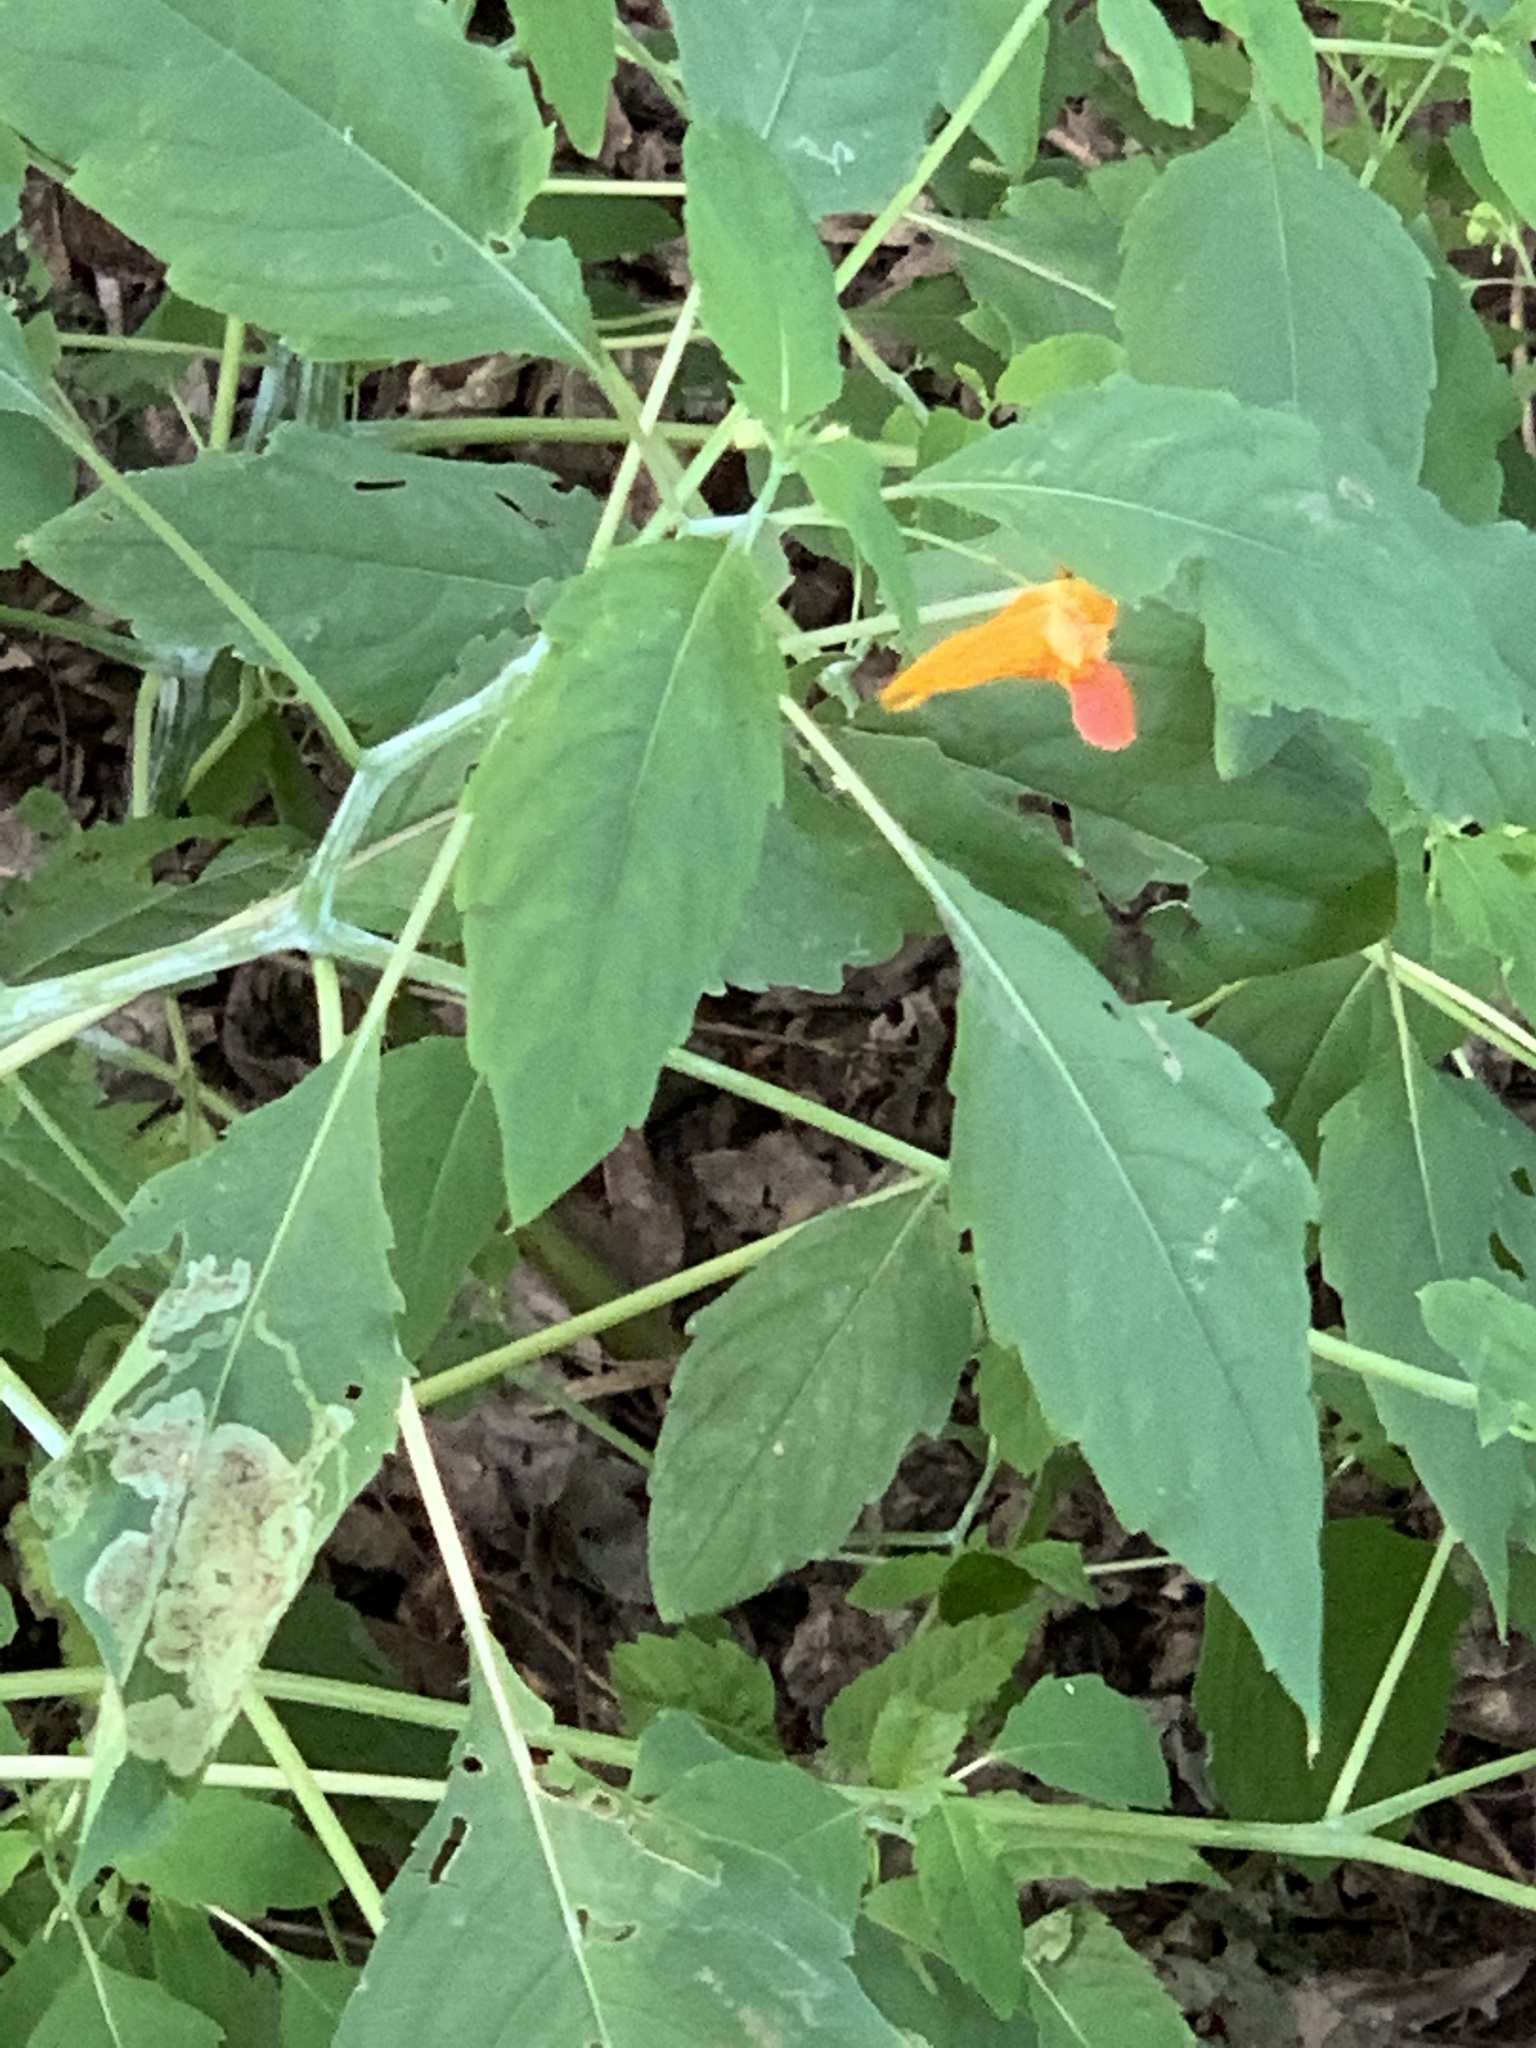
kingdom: Plantae
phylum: Tracheophyta
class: Magnoliopsida
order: Ericales
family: Balsaminaceae
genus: Impatiens
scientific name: Impatiens capensis
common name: Orange balsam
